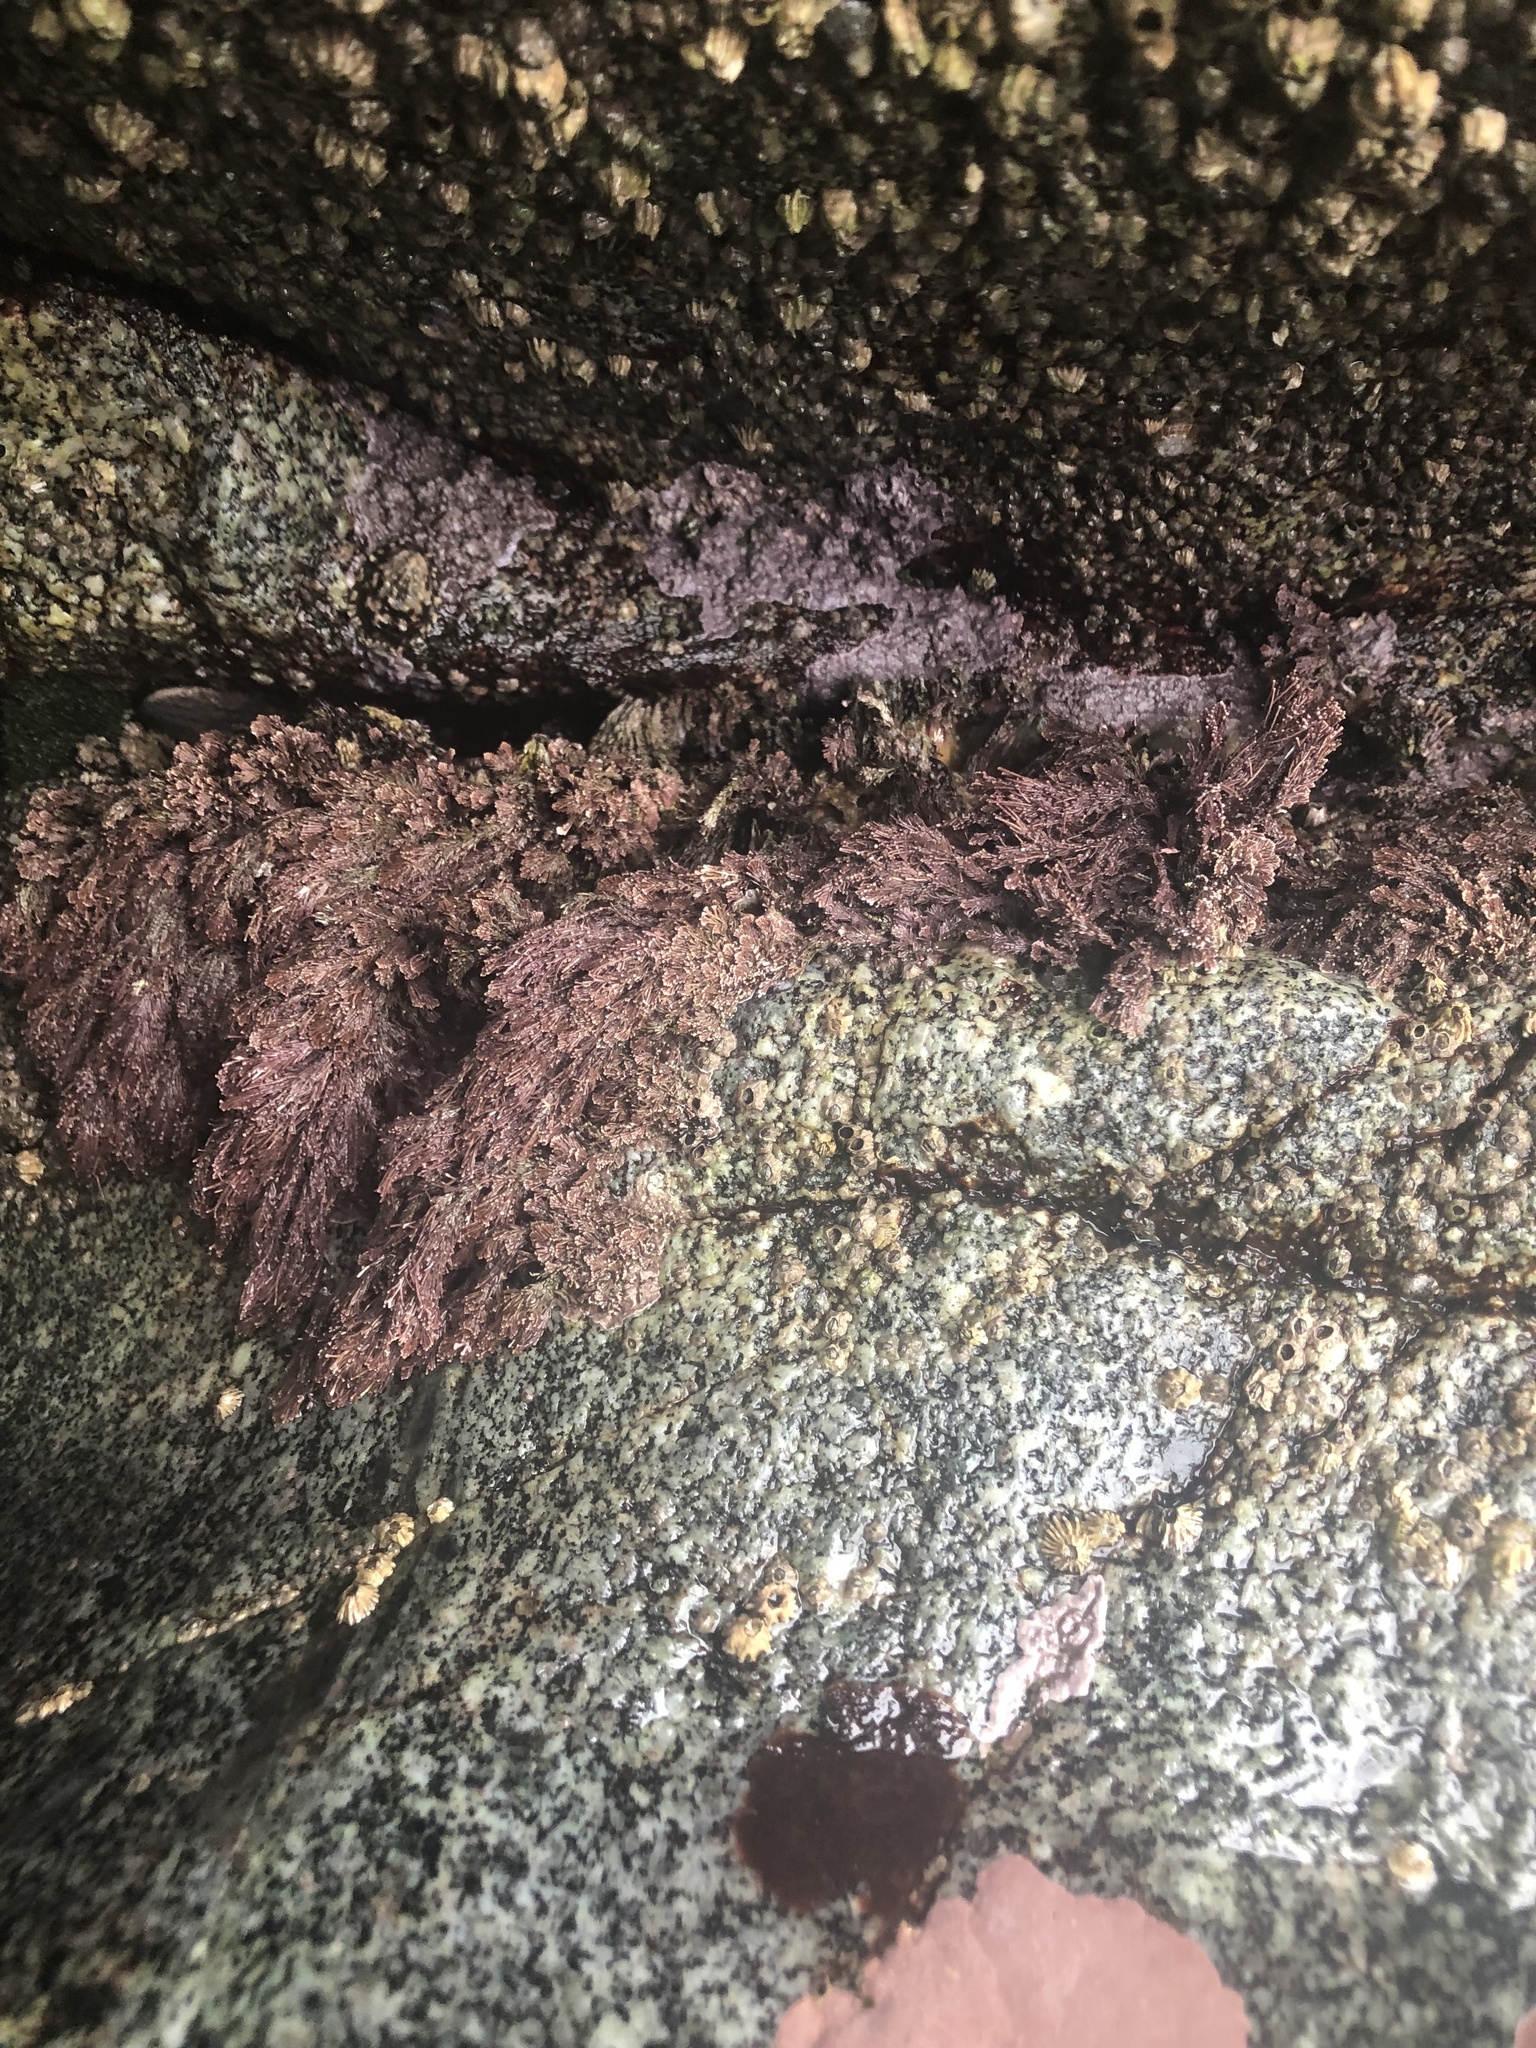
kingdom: Plantae
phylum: Rhodophyta
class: Florideophyceae
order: Corallinales
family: Corallinaceae
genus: Corallina
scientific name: Corallina vancouveriensis
